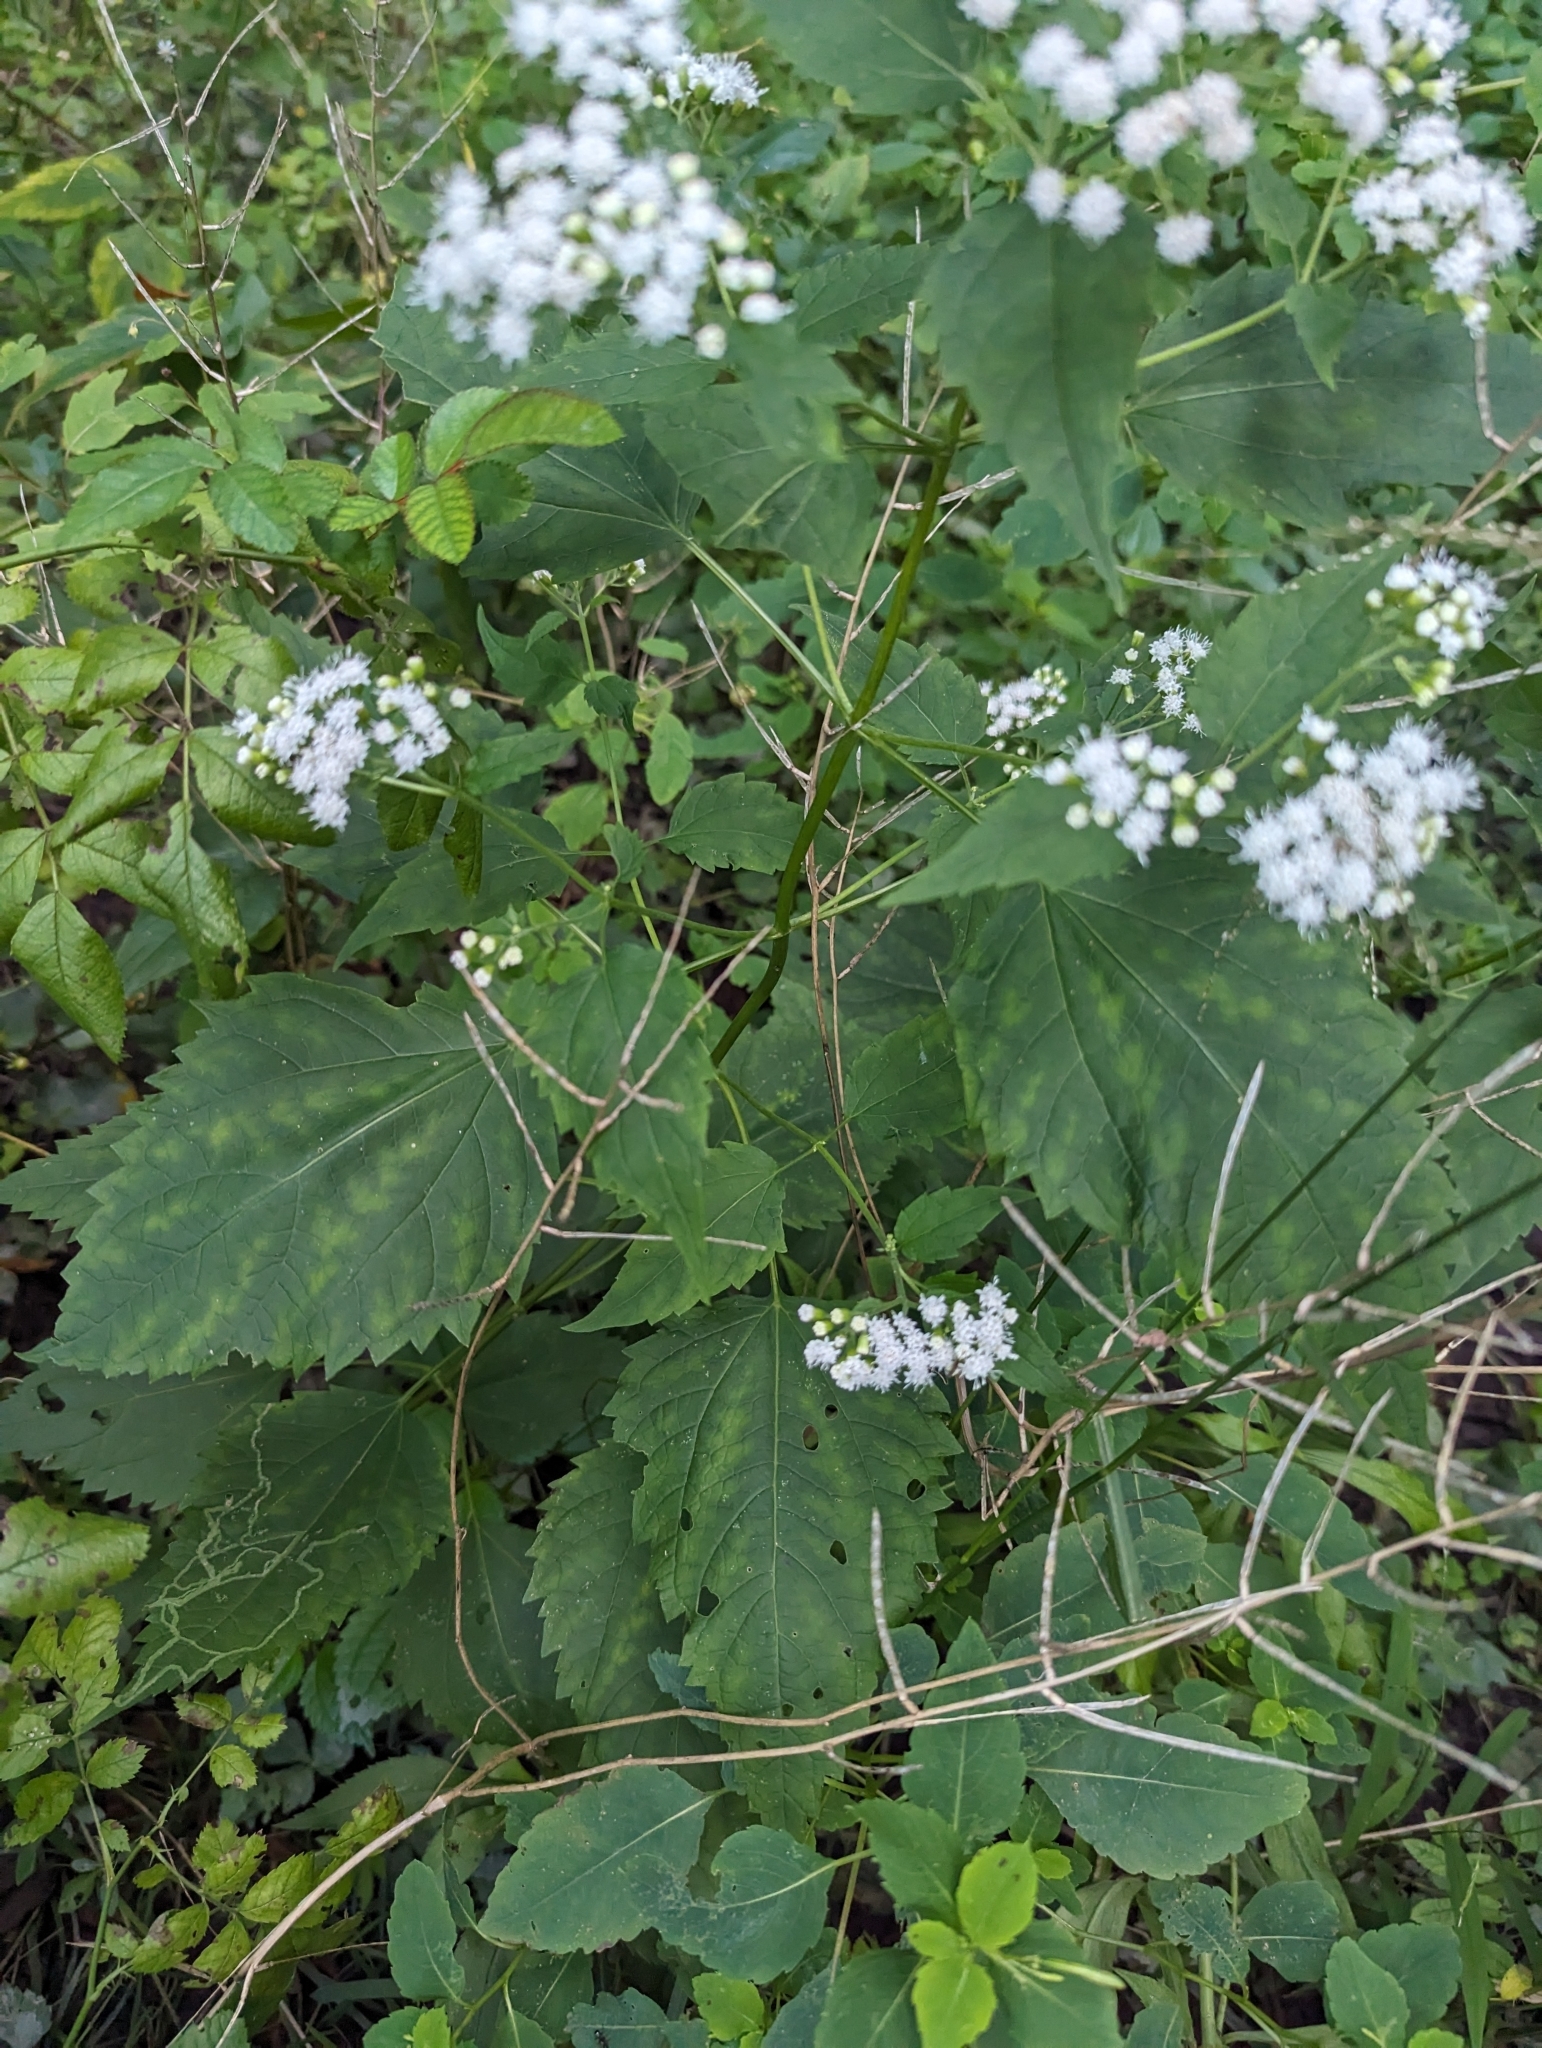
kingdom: Plantae
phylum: Tracheophyta
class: Magnoliopsida
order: Asterales
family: Asteraceae
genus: Ageratina
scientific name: Ageratina altissima
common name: White snakeroot
